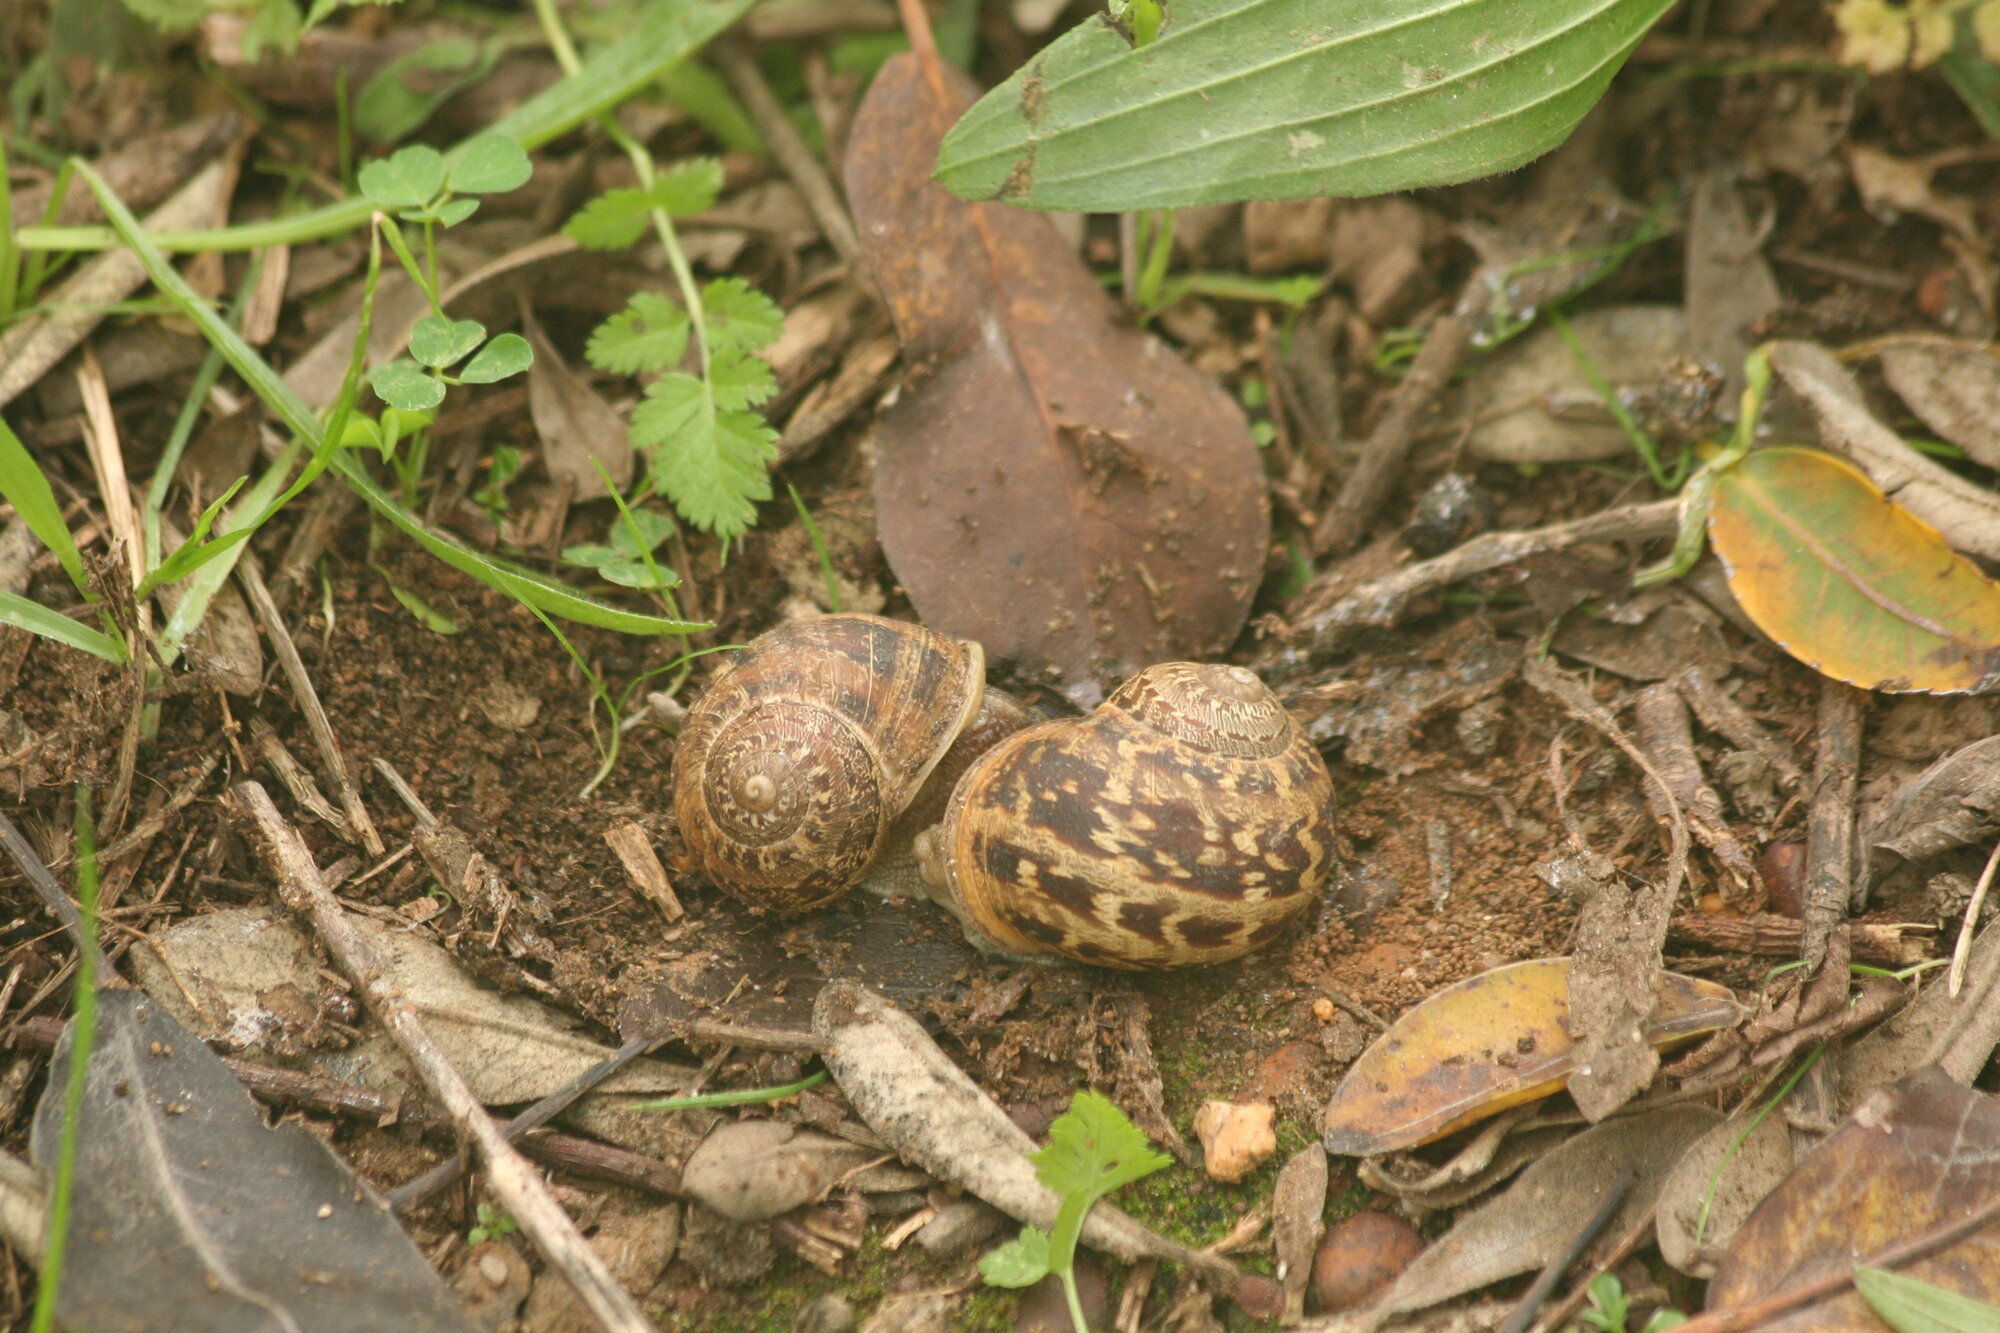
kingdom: Animalia
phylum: Mollusca
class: Gastropoda
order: Stylommatophora
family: Helicidae
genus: Cornu
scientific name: Cornu aspersum
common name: Brown garden snail
